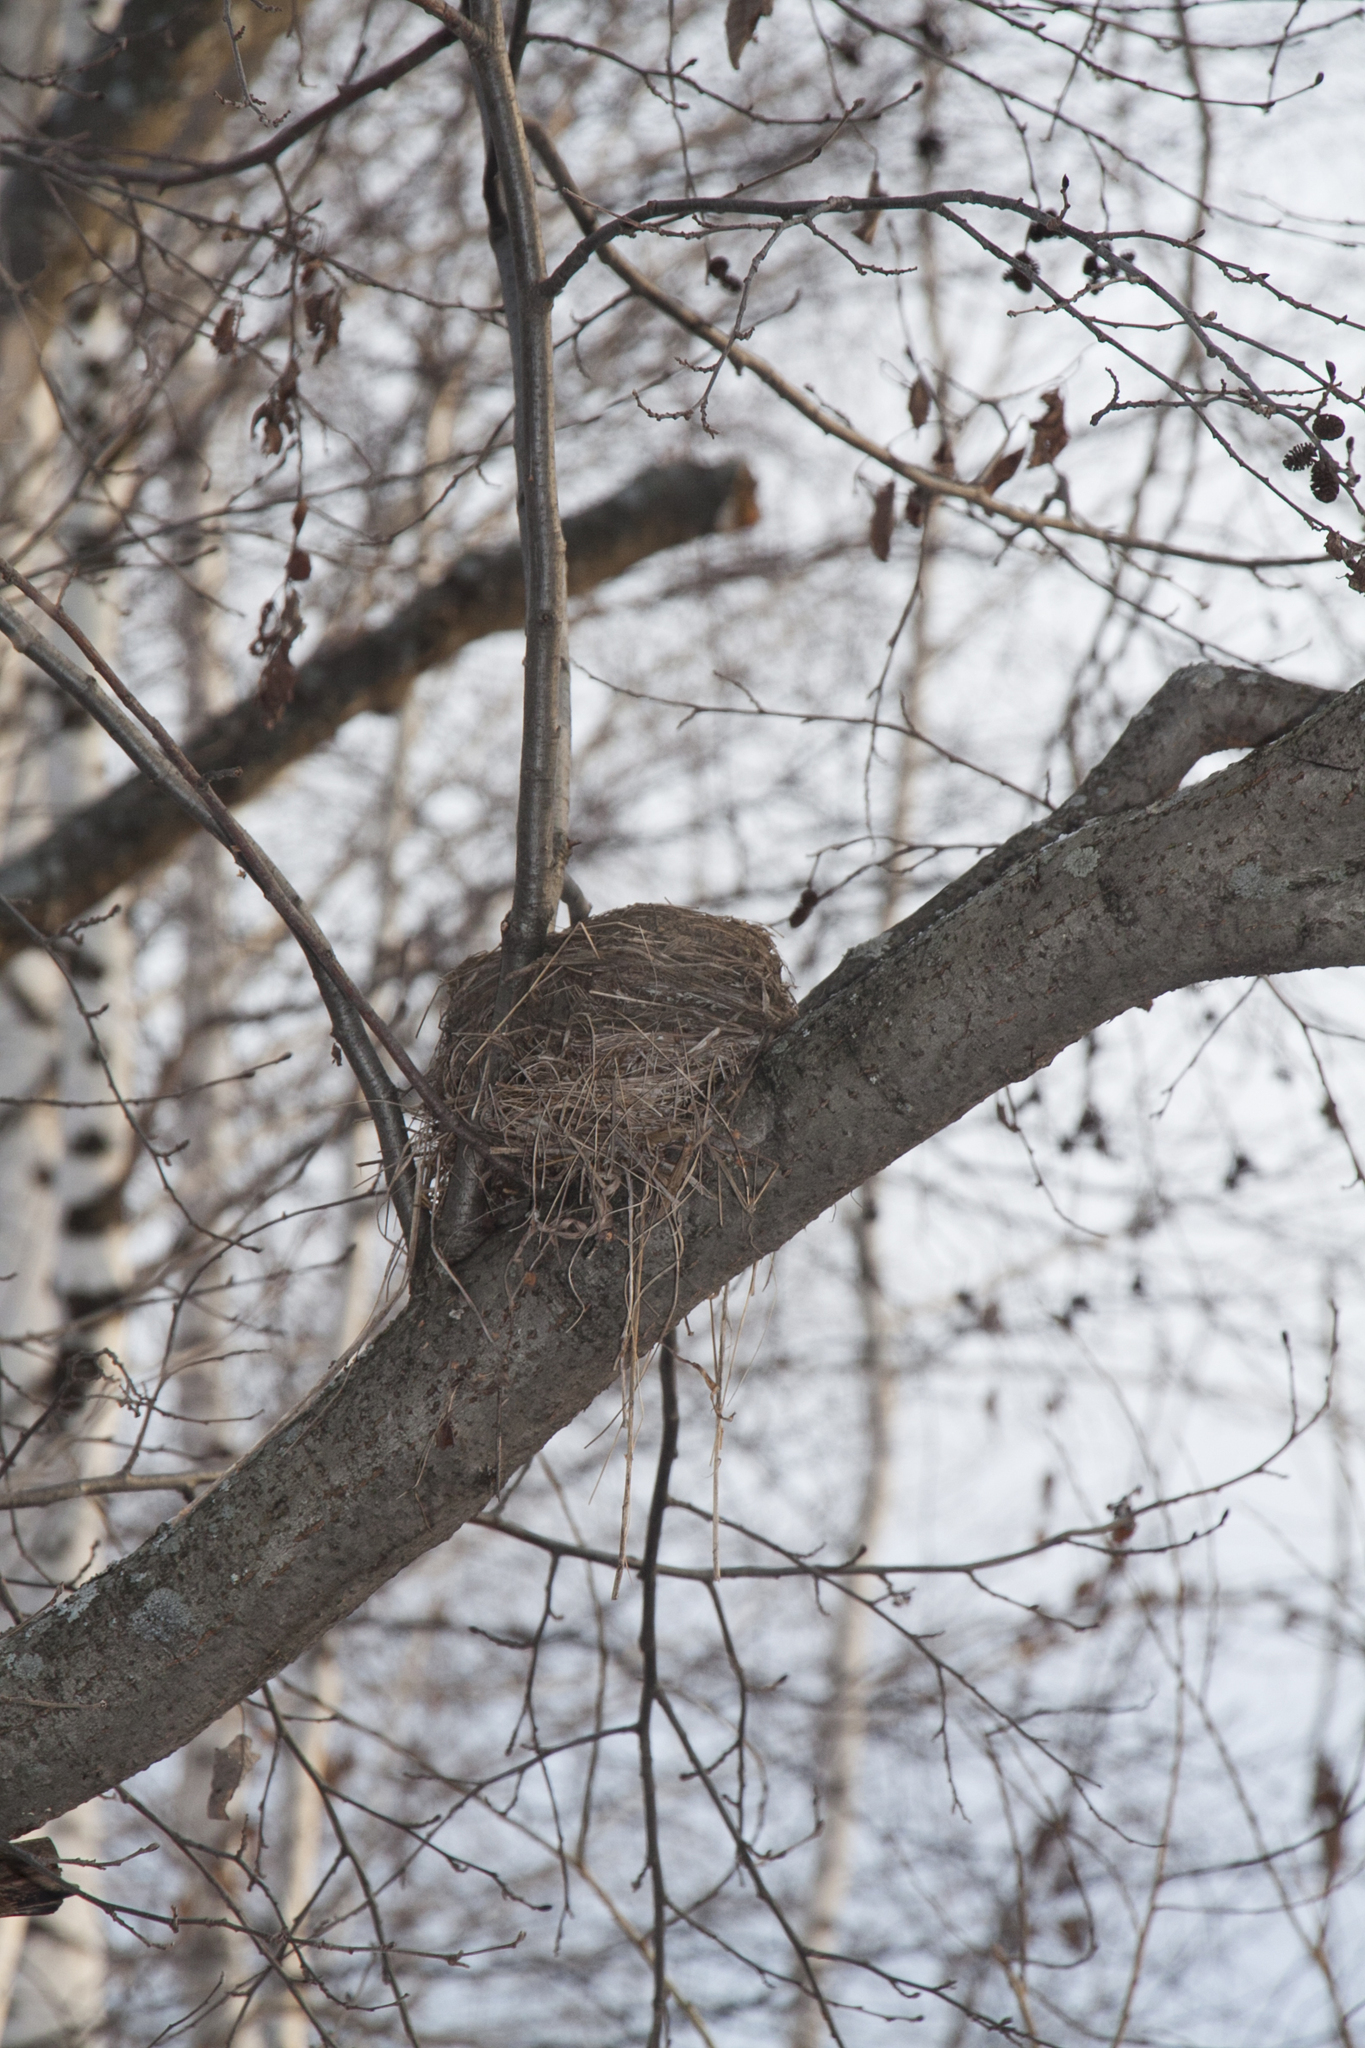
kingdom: Animalia
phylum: Chordata
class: Aves
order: Passeriformes
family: Turdidae
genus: Turdus
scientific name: Turdus pilaris
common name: Fieldfare
